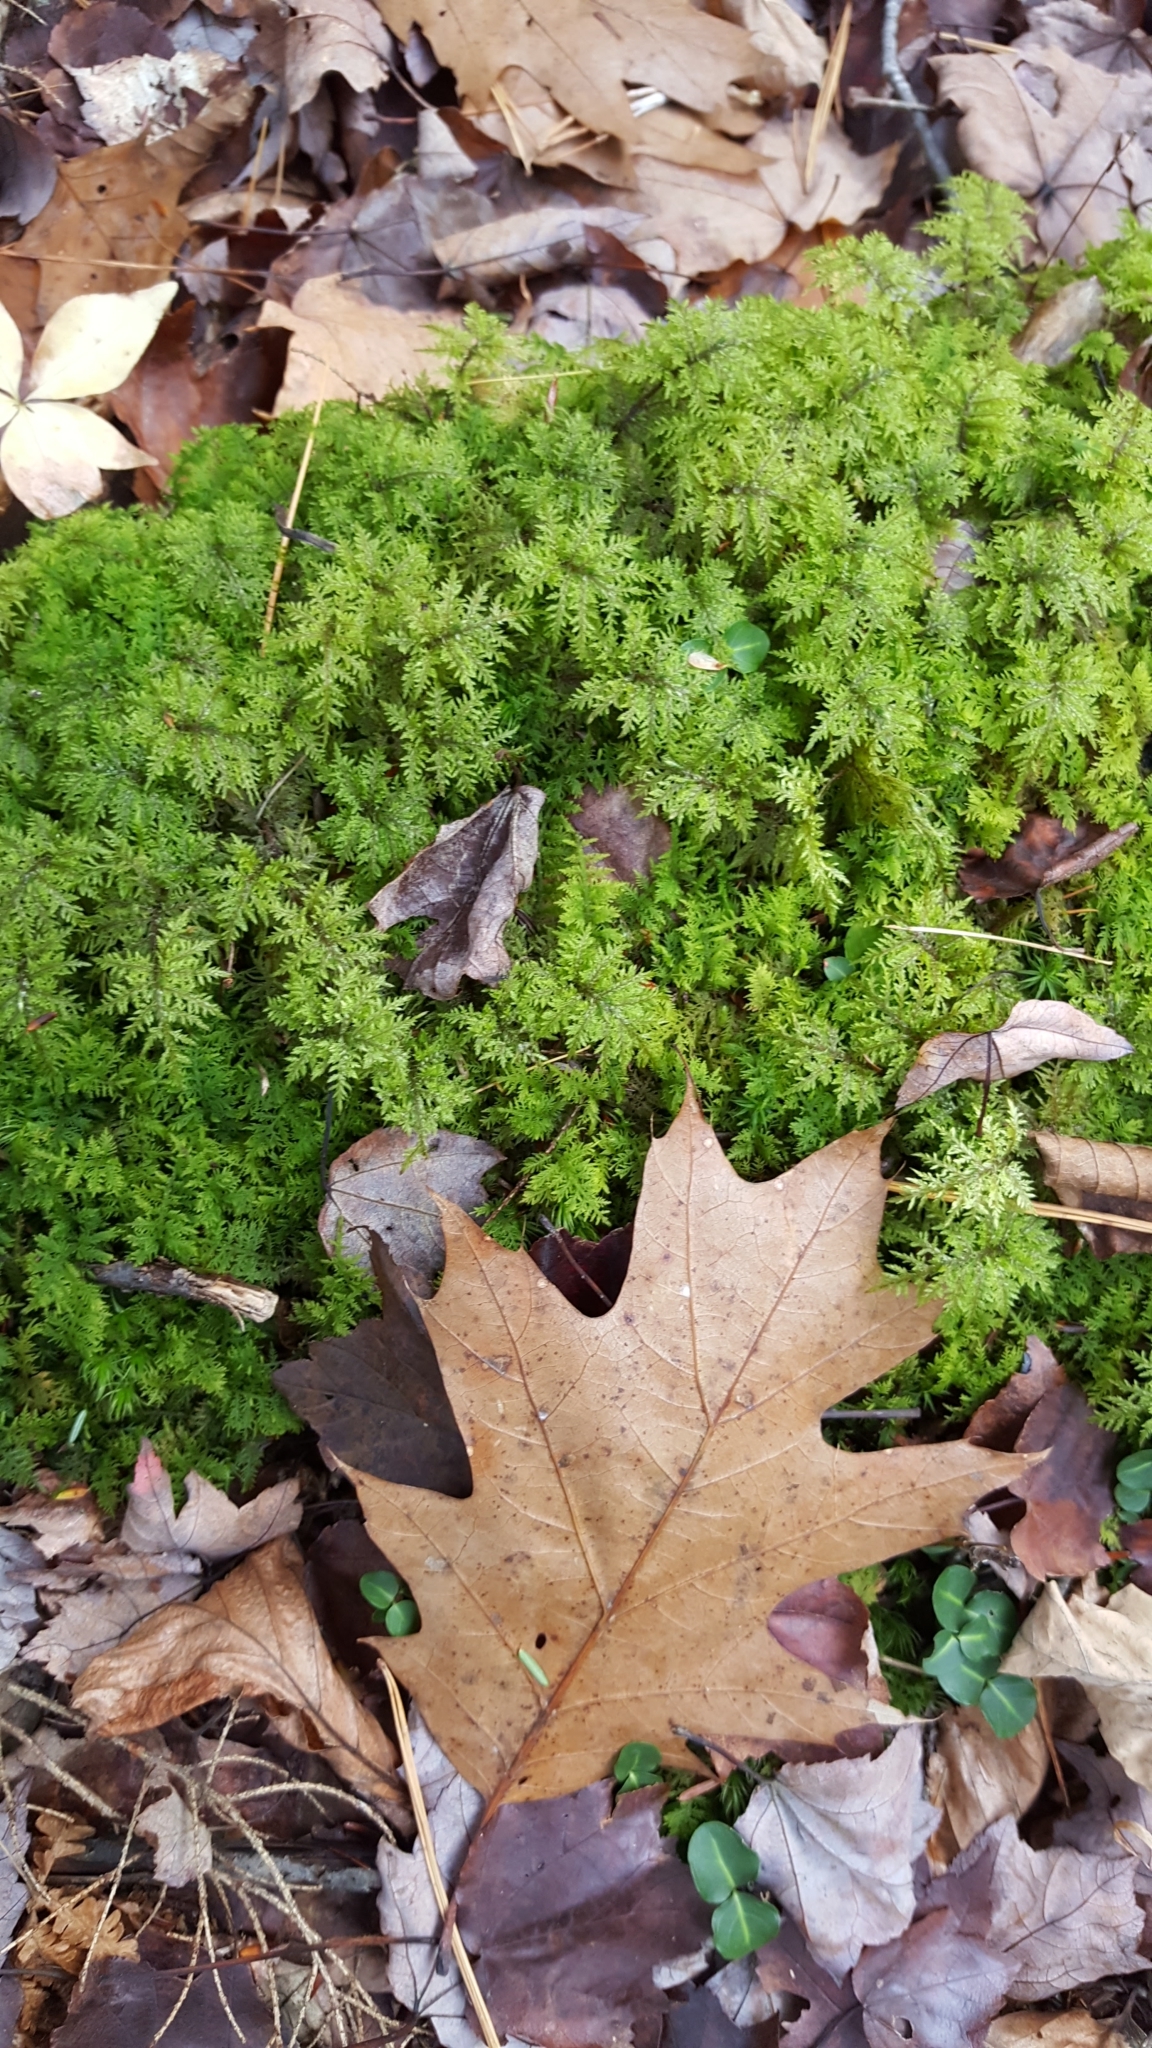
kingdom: Plantae
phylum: Bryophyta
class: Bryopsida
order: Hypnales
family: Hylocomiaceae
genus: Hylocomium
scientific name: Hylocomium splendens
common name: Stairstep moss
